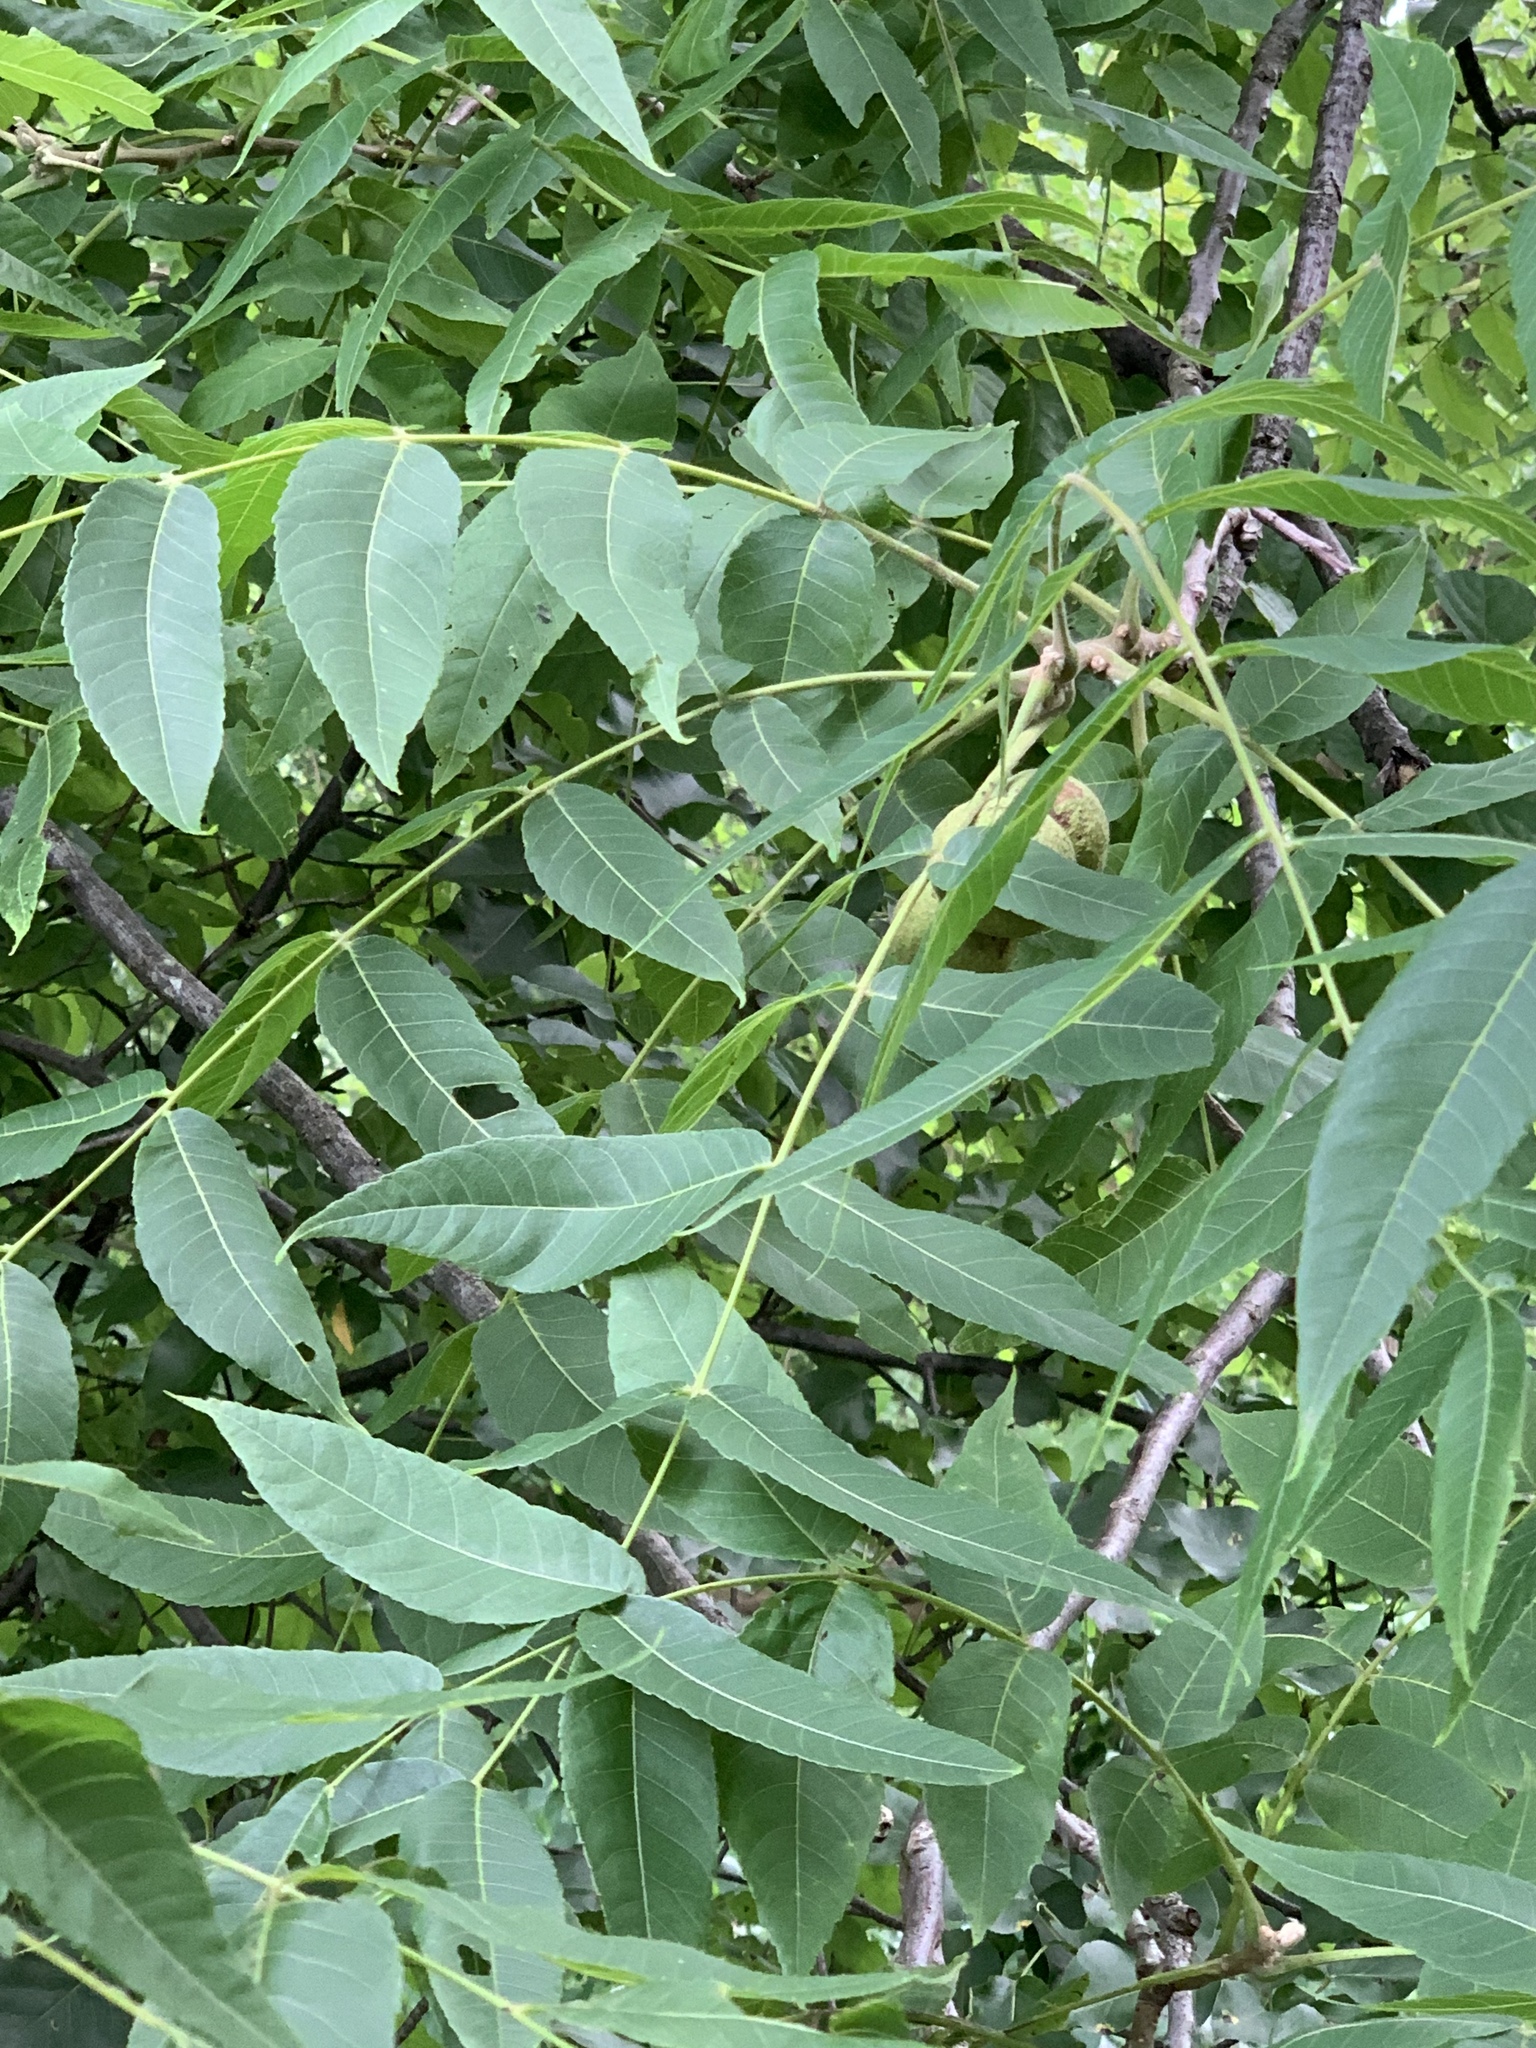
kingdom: Plantae
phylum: Tracheophyta
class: Magnoliopsida
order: Fagales
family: Juglandaceae
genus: Juglans
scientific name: Juglans nigra
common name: Black walnut
